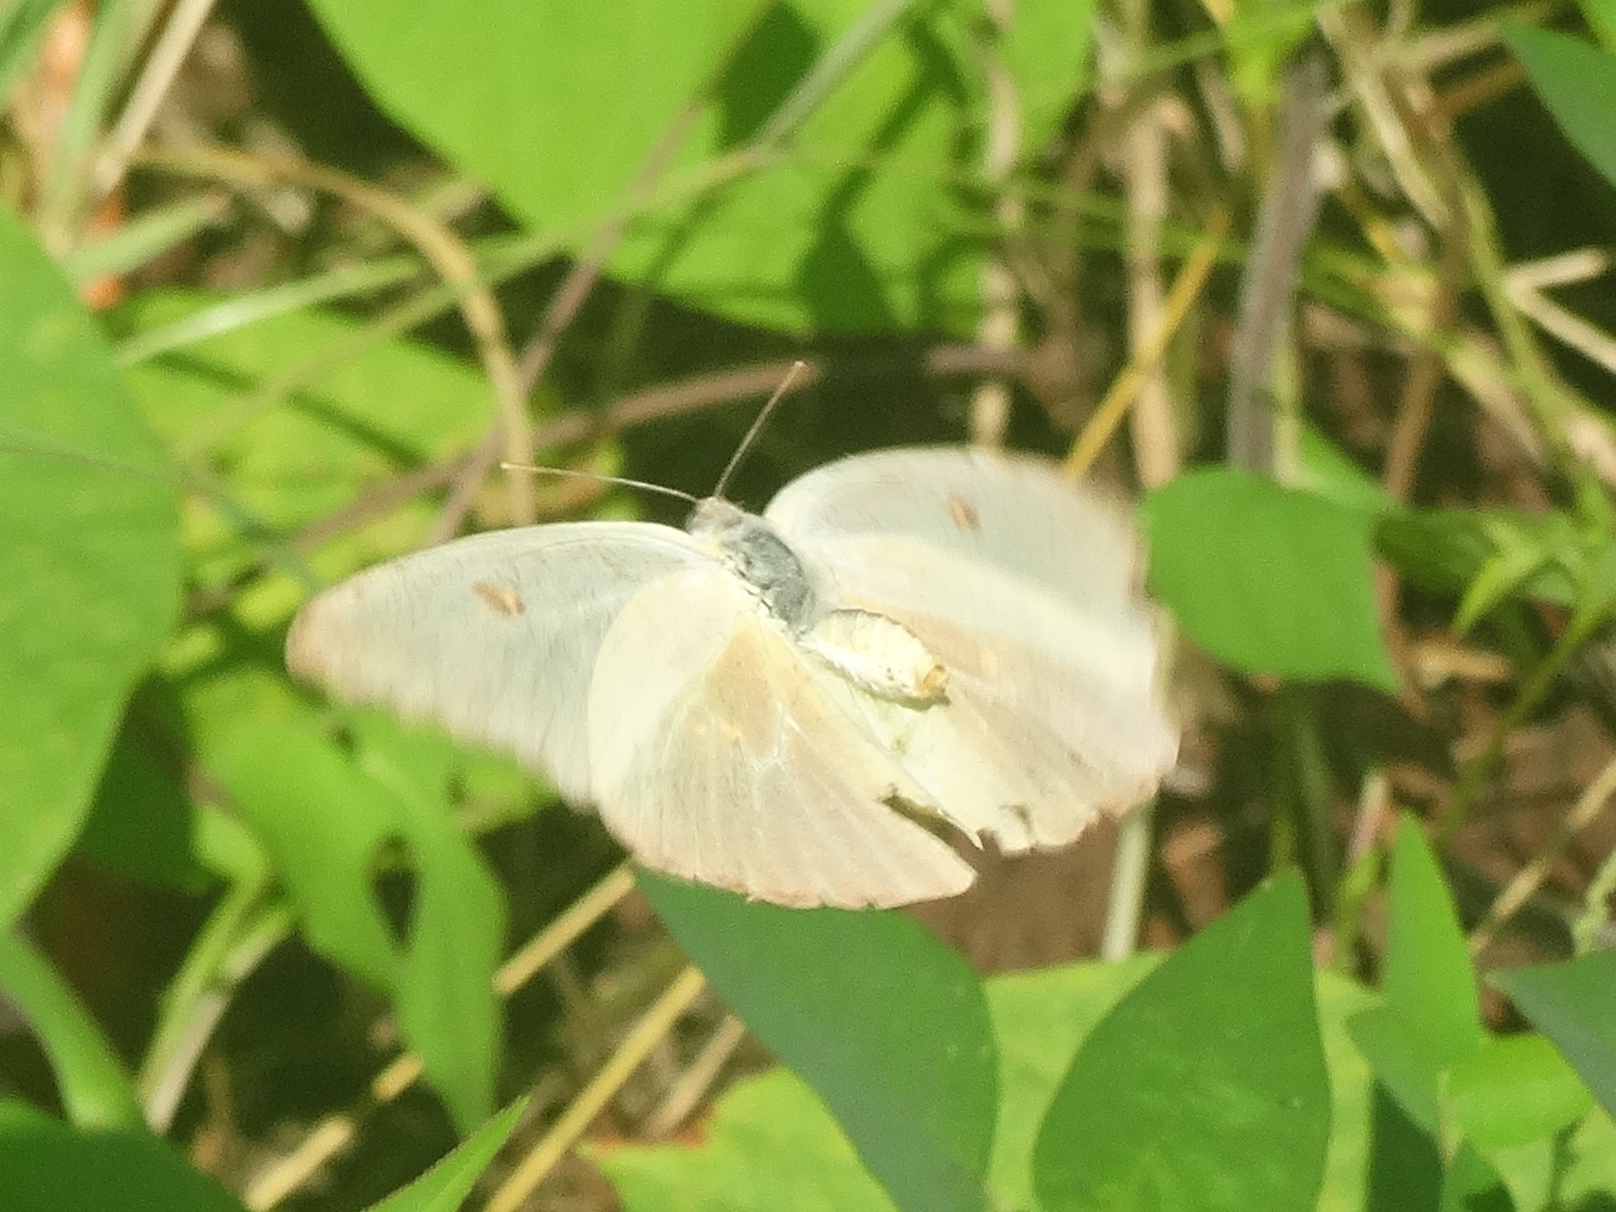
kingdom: Animalia
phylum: Arthropoda
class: Insecta
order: Lepidoptera
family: Pieridae
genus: Phoebis
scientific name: Phoebis
